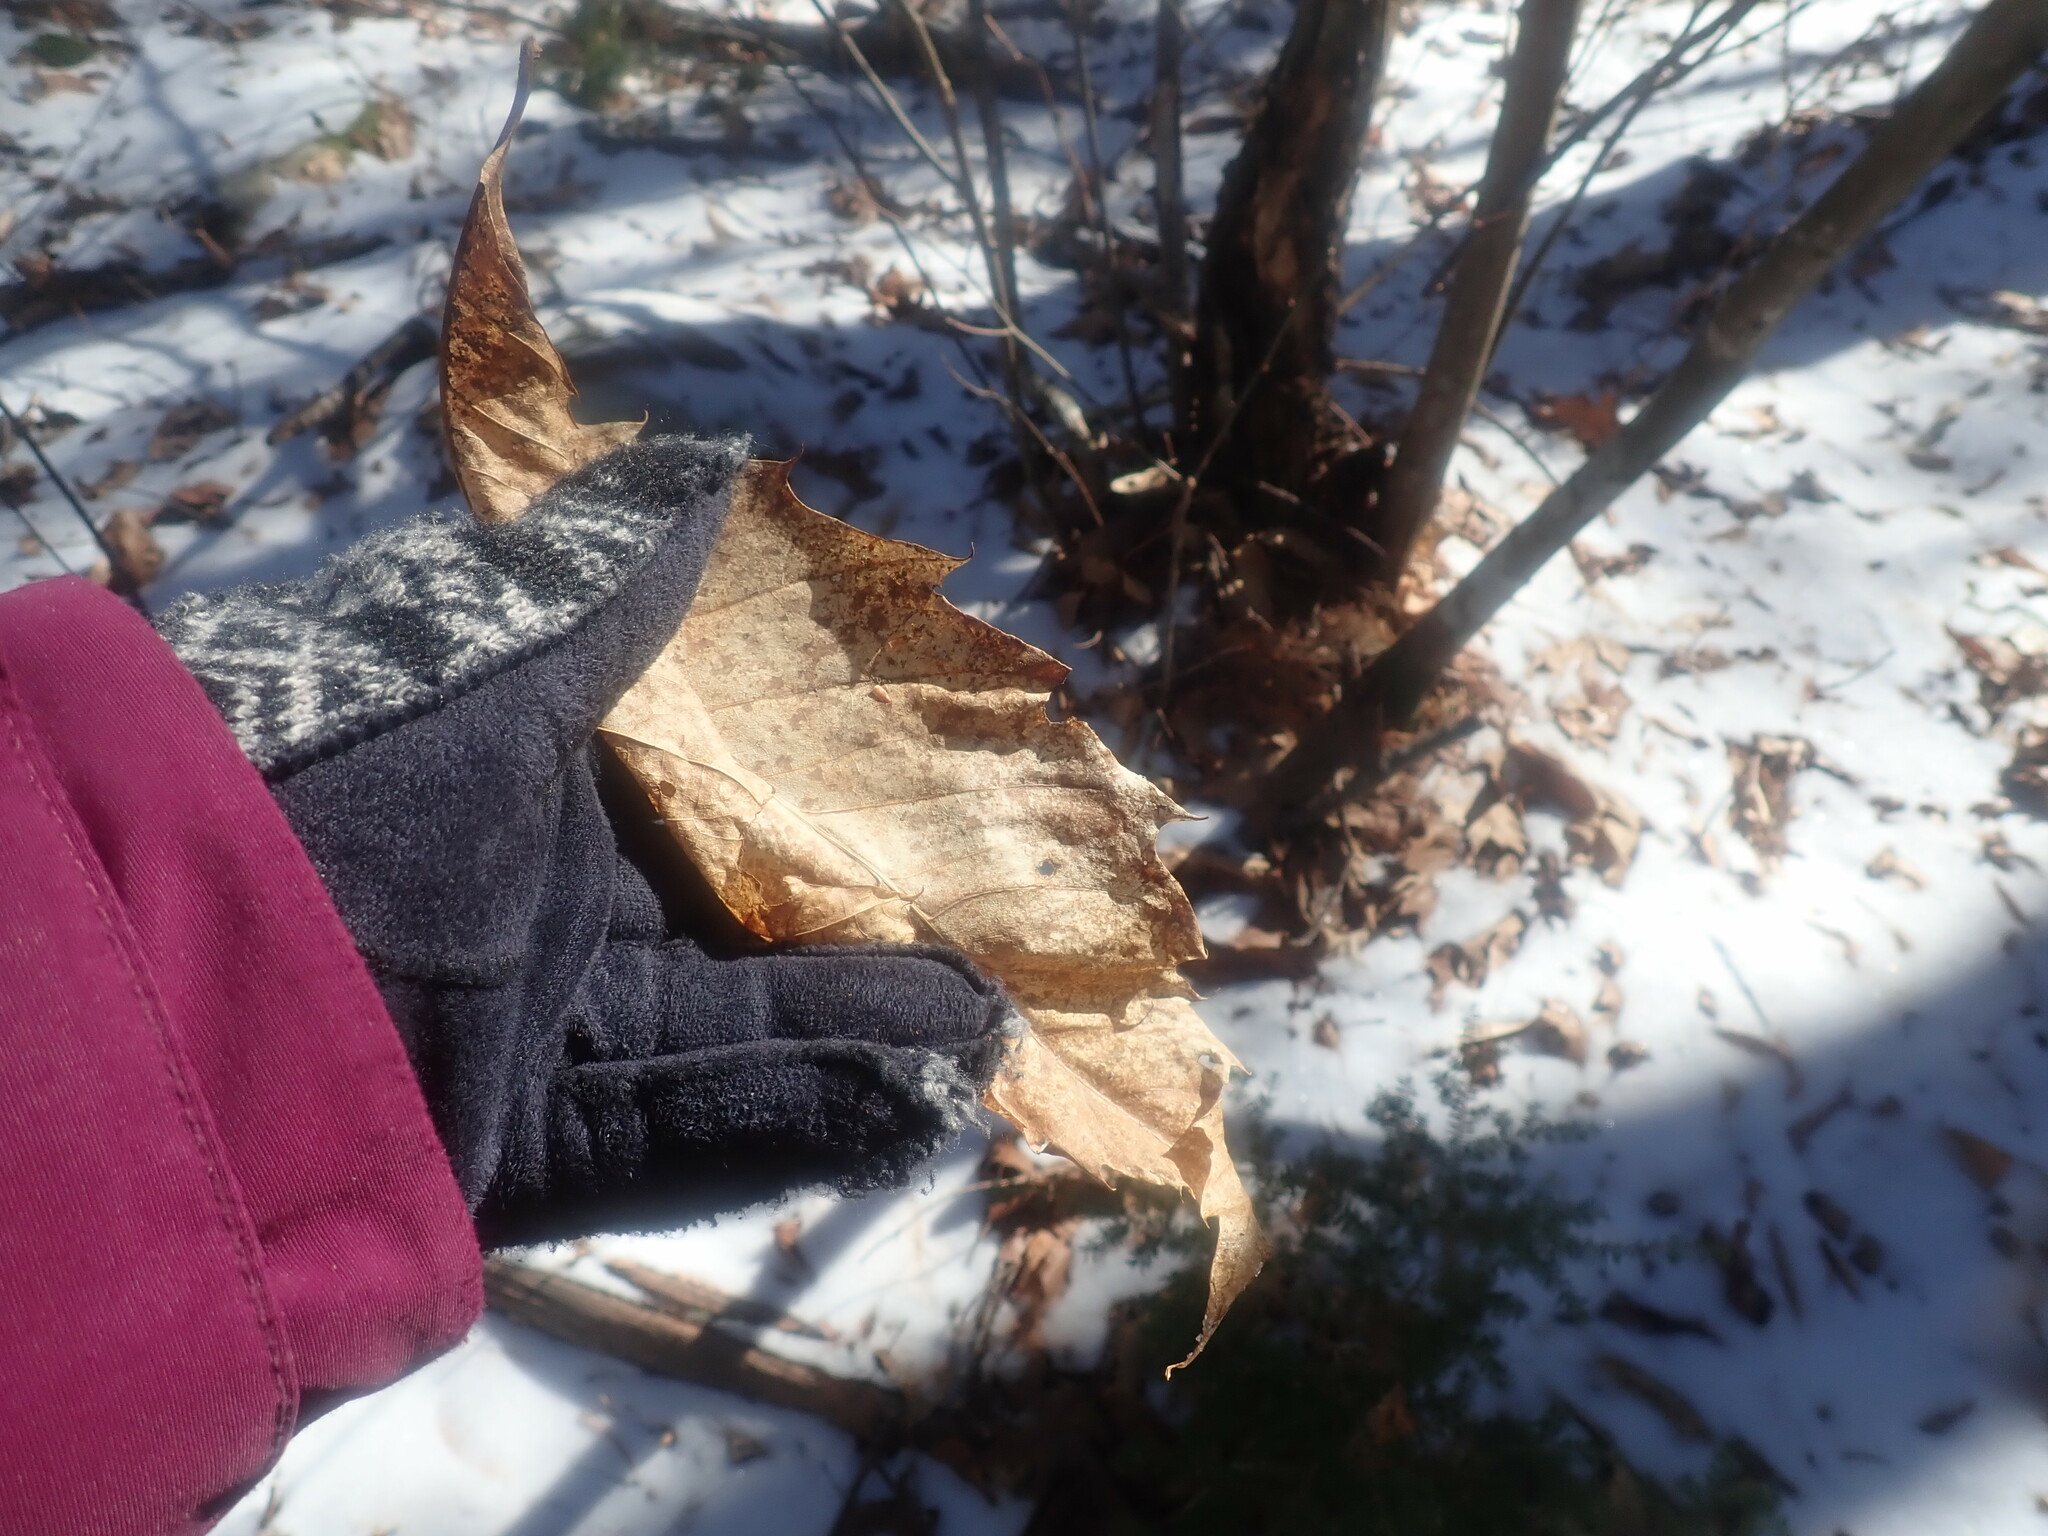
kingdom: Plantae
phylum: Tracheophyta
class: Magnoliopsida
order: Fagales
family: Fagaceae
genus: Castanea
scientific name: Castanea dentata
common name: American chestnut
